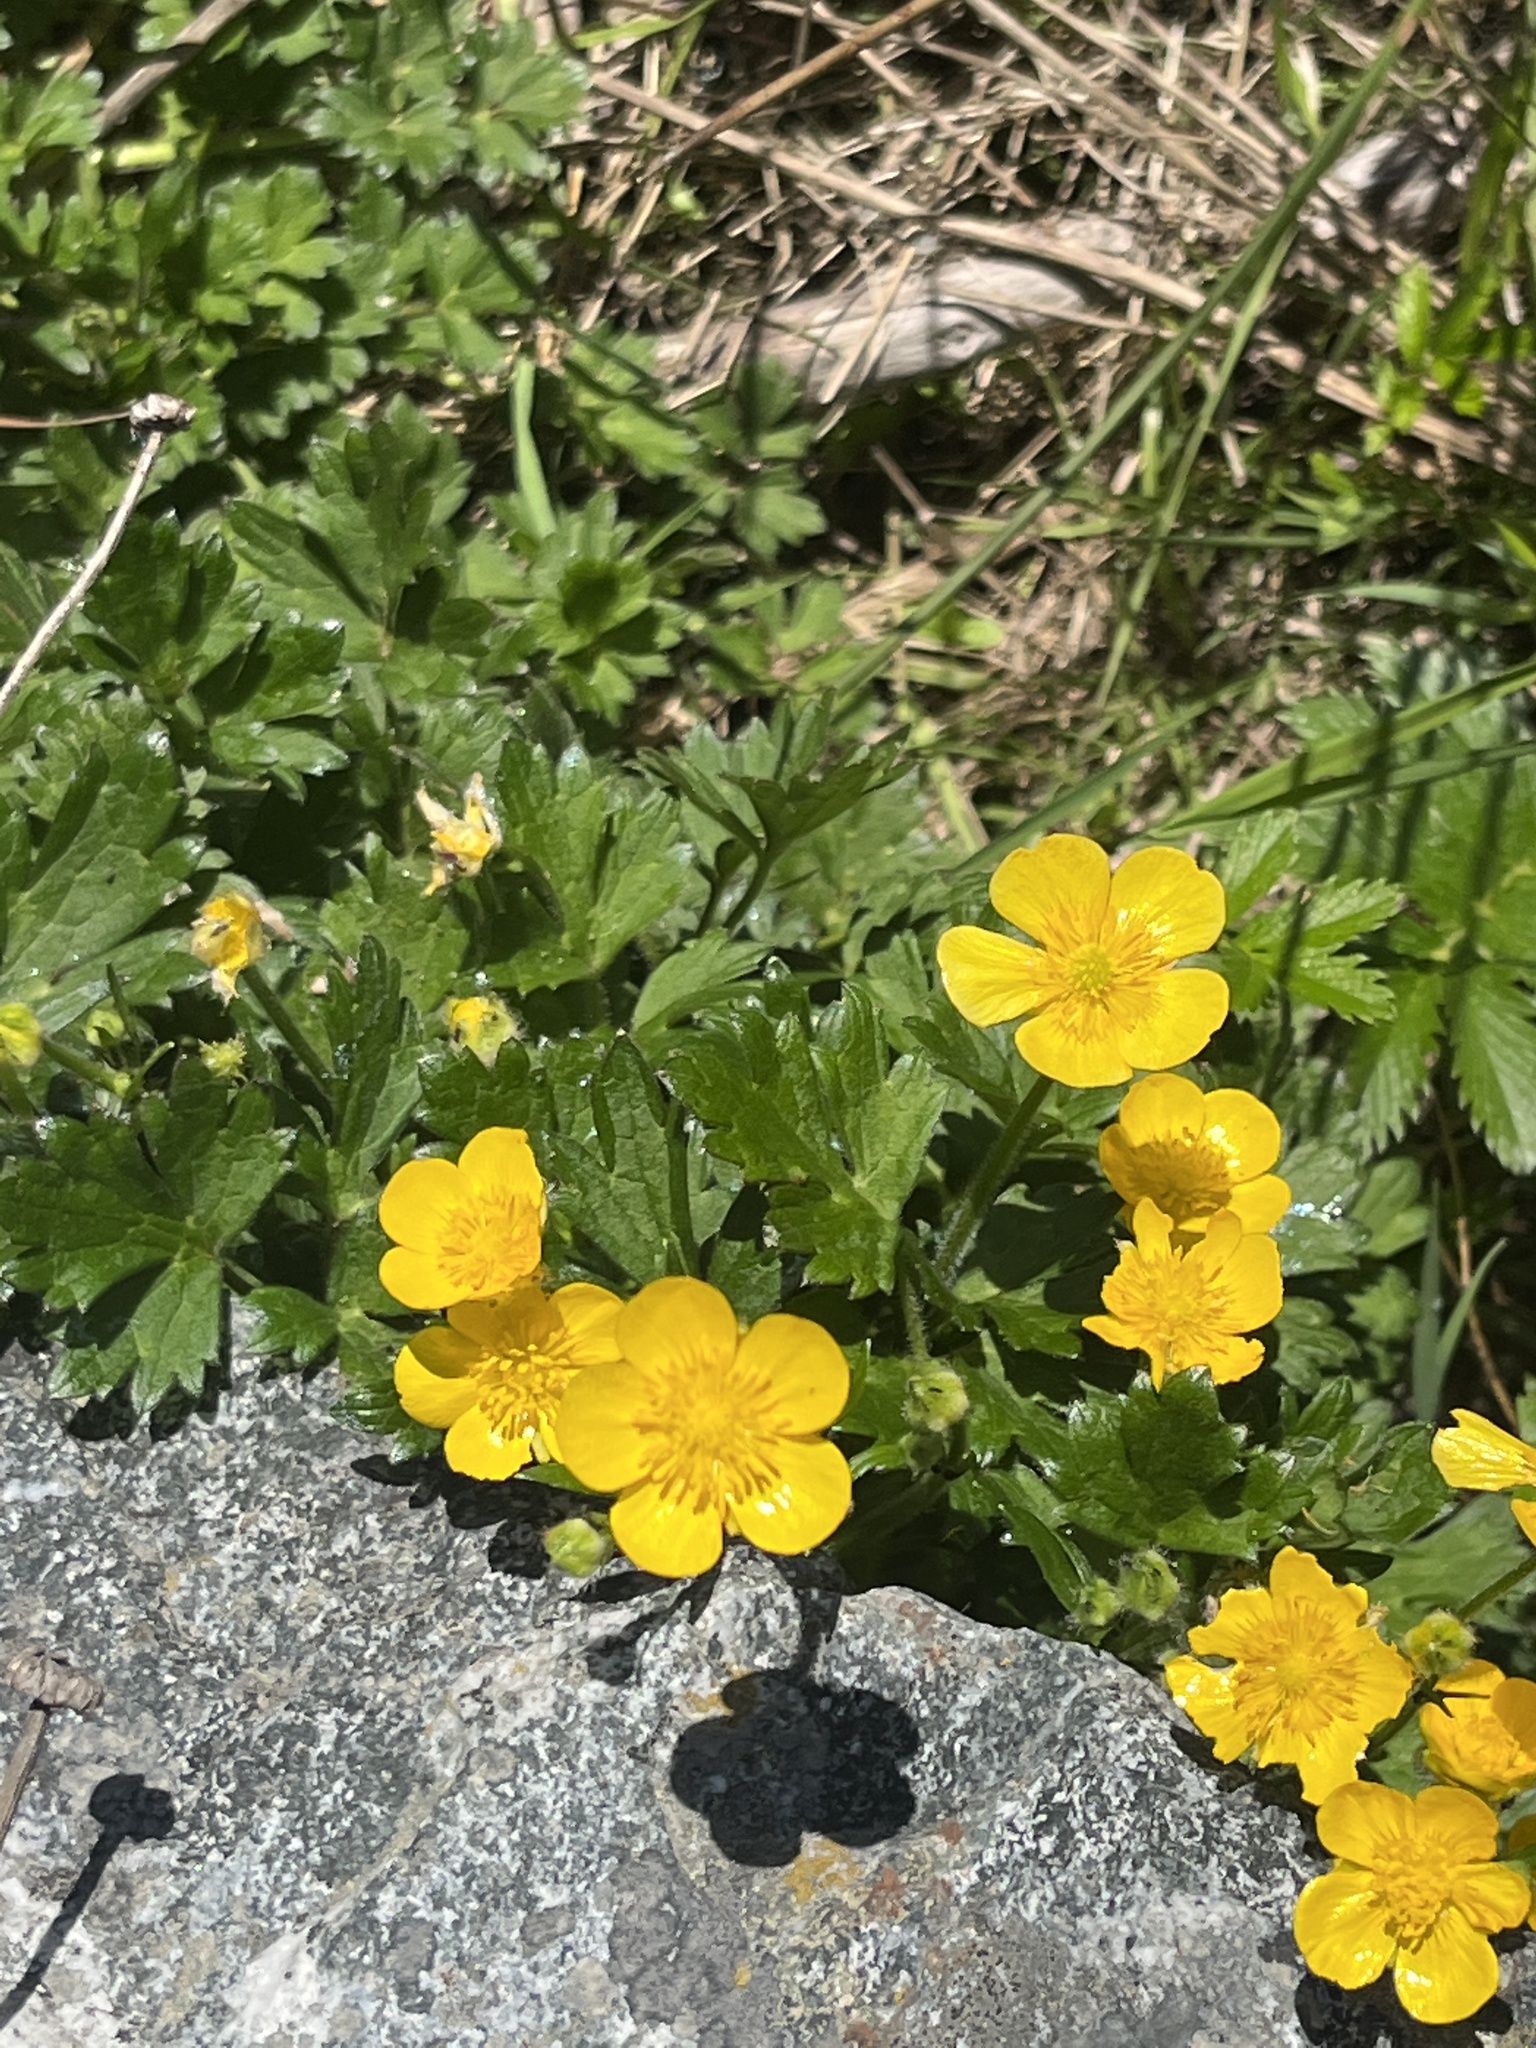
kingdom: Plantae
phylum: Tracheophyta
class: Magnoliopsida
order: Ranunculales
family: Ranunculaceae
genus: Ranunculus
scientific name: Ranunculus repens
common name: Creeping buttercup
